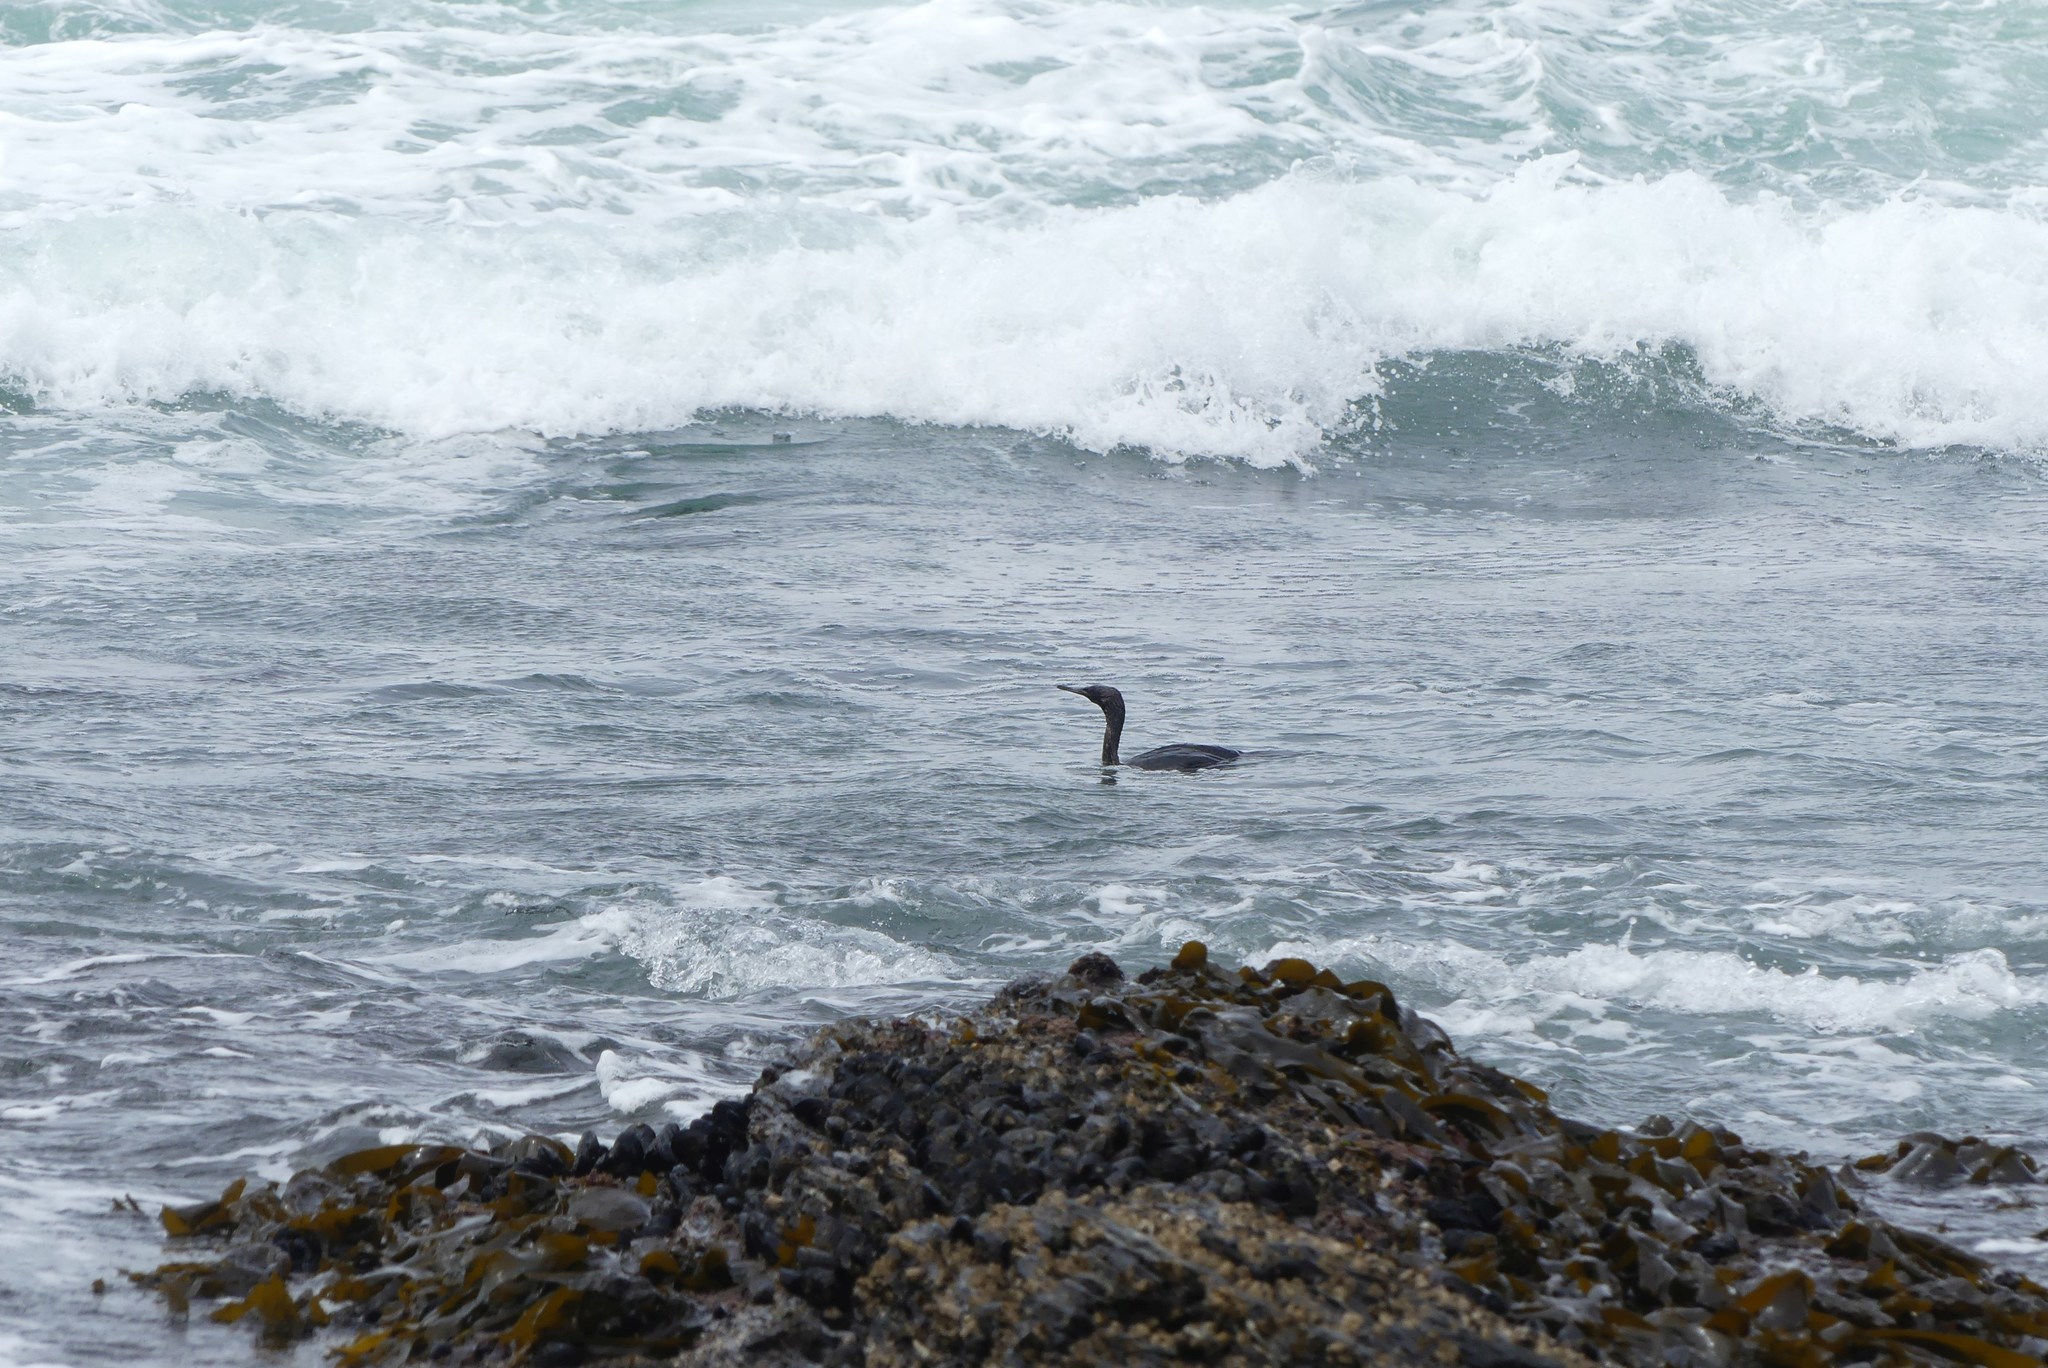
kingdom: Animalia
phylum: Chordata
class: Aves
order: Suliformes
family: Phalacrocoracidae
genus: Urile
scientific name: Urile penicillatus
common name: Brandt's cormorant
